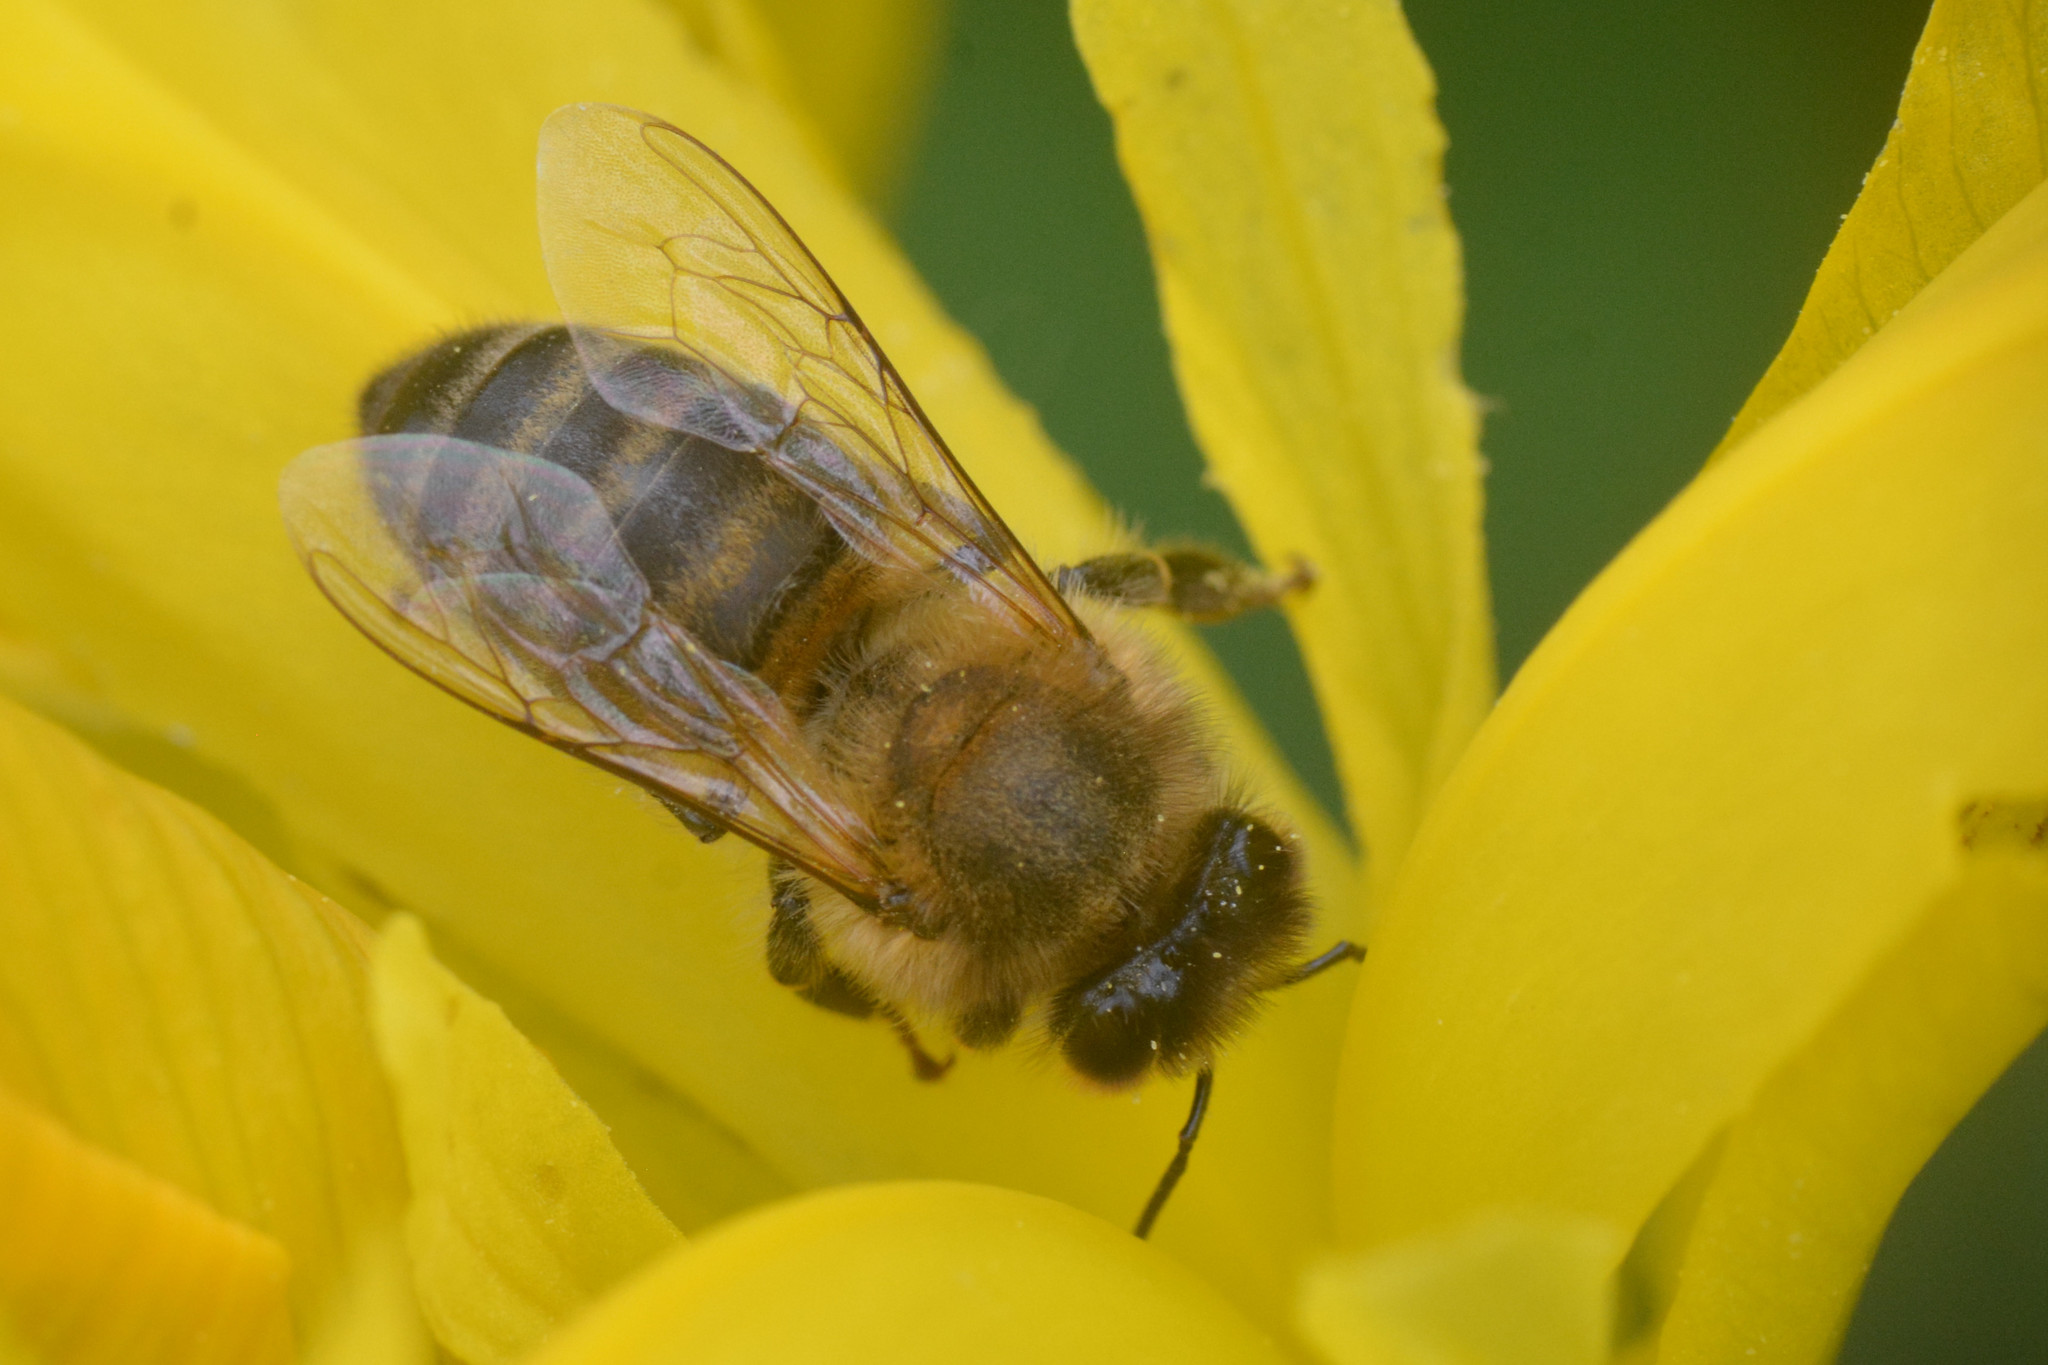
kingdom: Animalia
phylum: Arthropoda
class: Insecta
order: Hymenoptera
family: Apidae
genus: Apis
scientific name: Apis mellifera
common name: Honey bee
